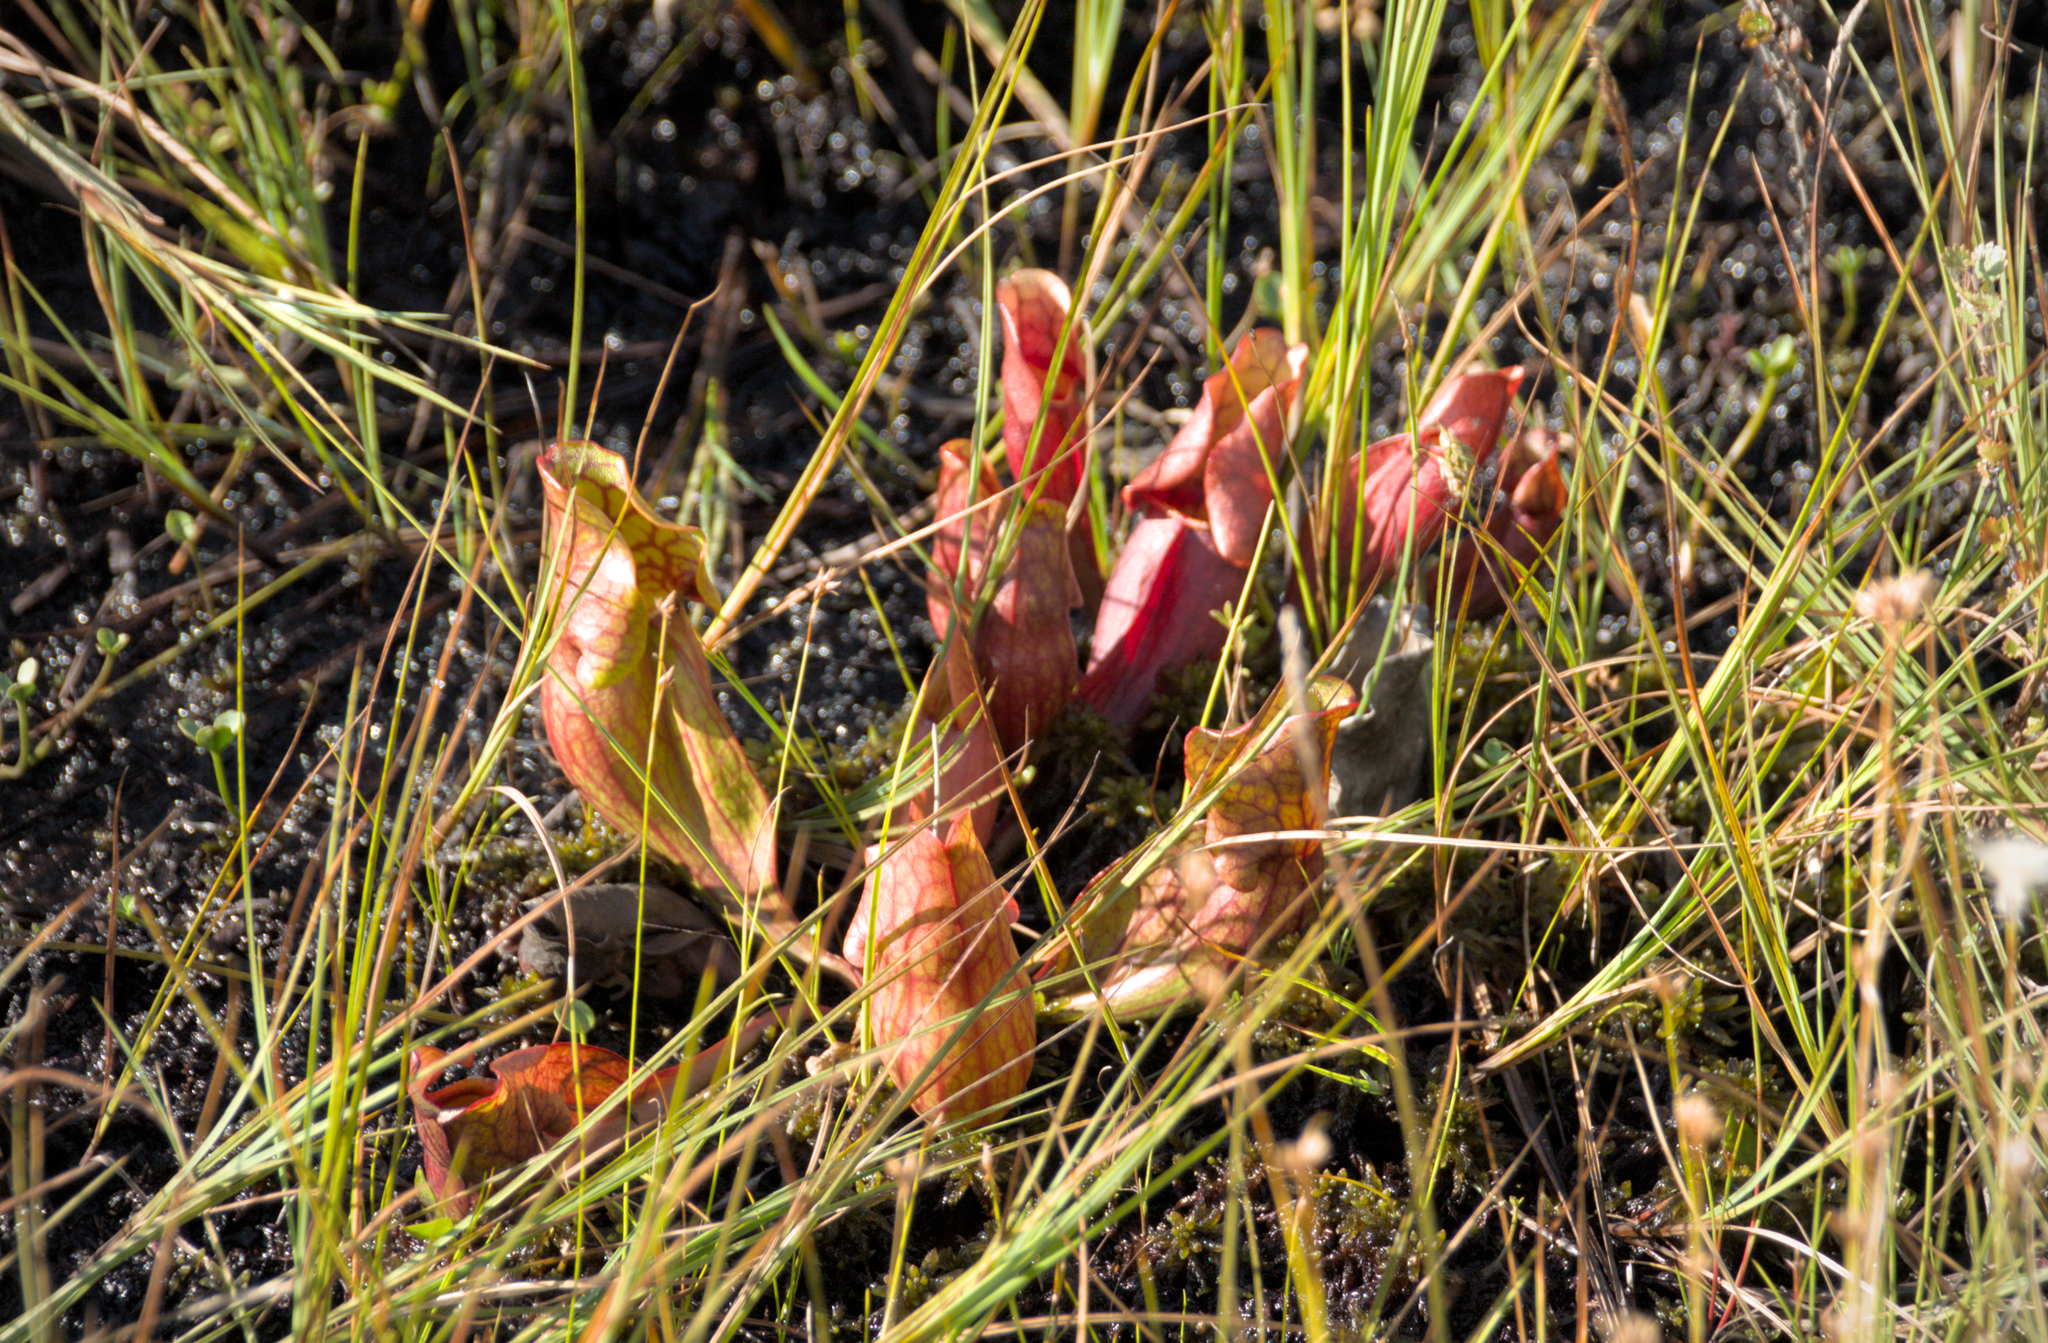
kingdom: Plantae
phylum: Tracheophyta
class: Magnoliopsida
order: Ericales
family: Sarraceniaceae
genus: Sarracenia
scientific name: Sarracenia purpurea
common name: Pitcherplant
